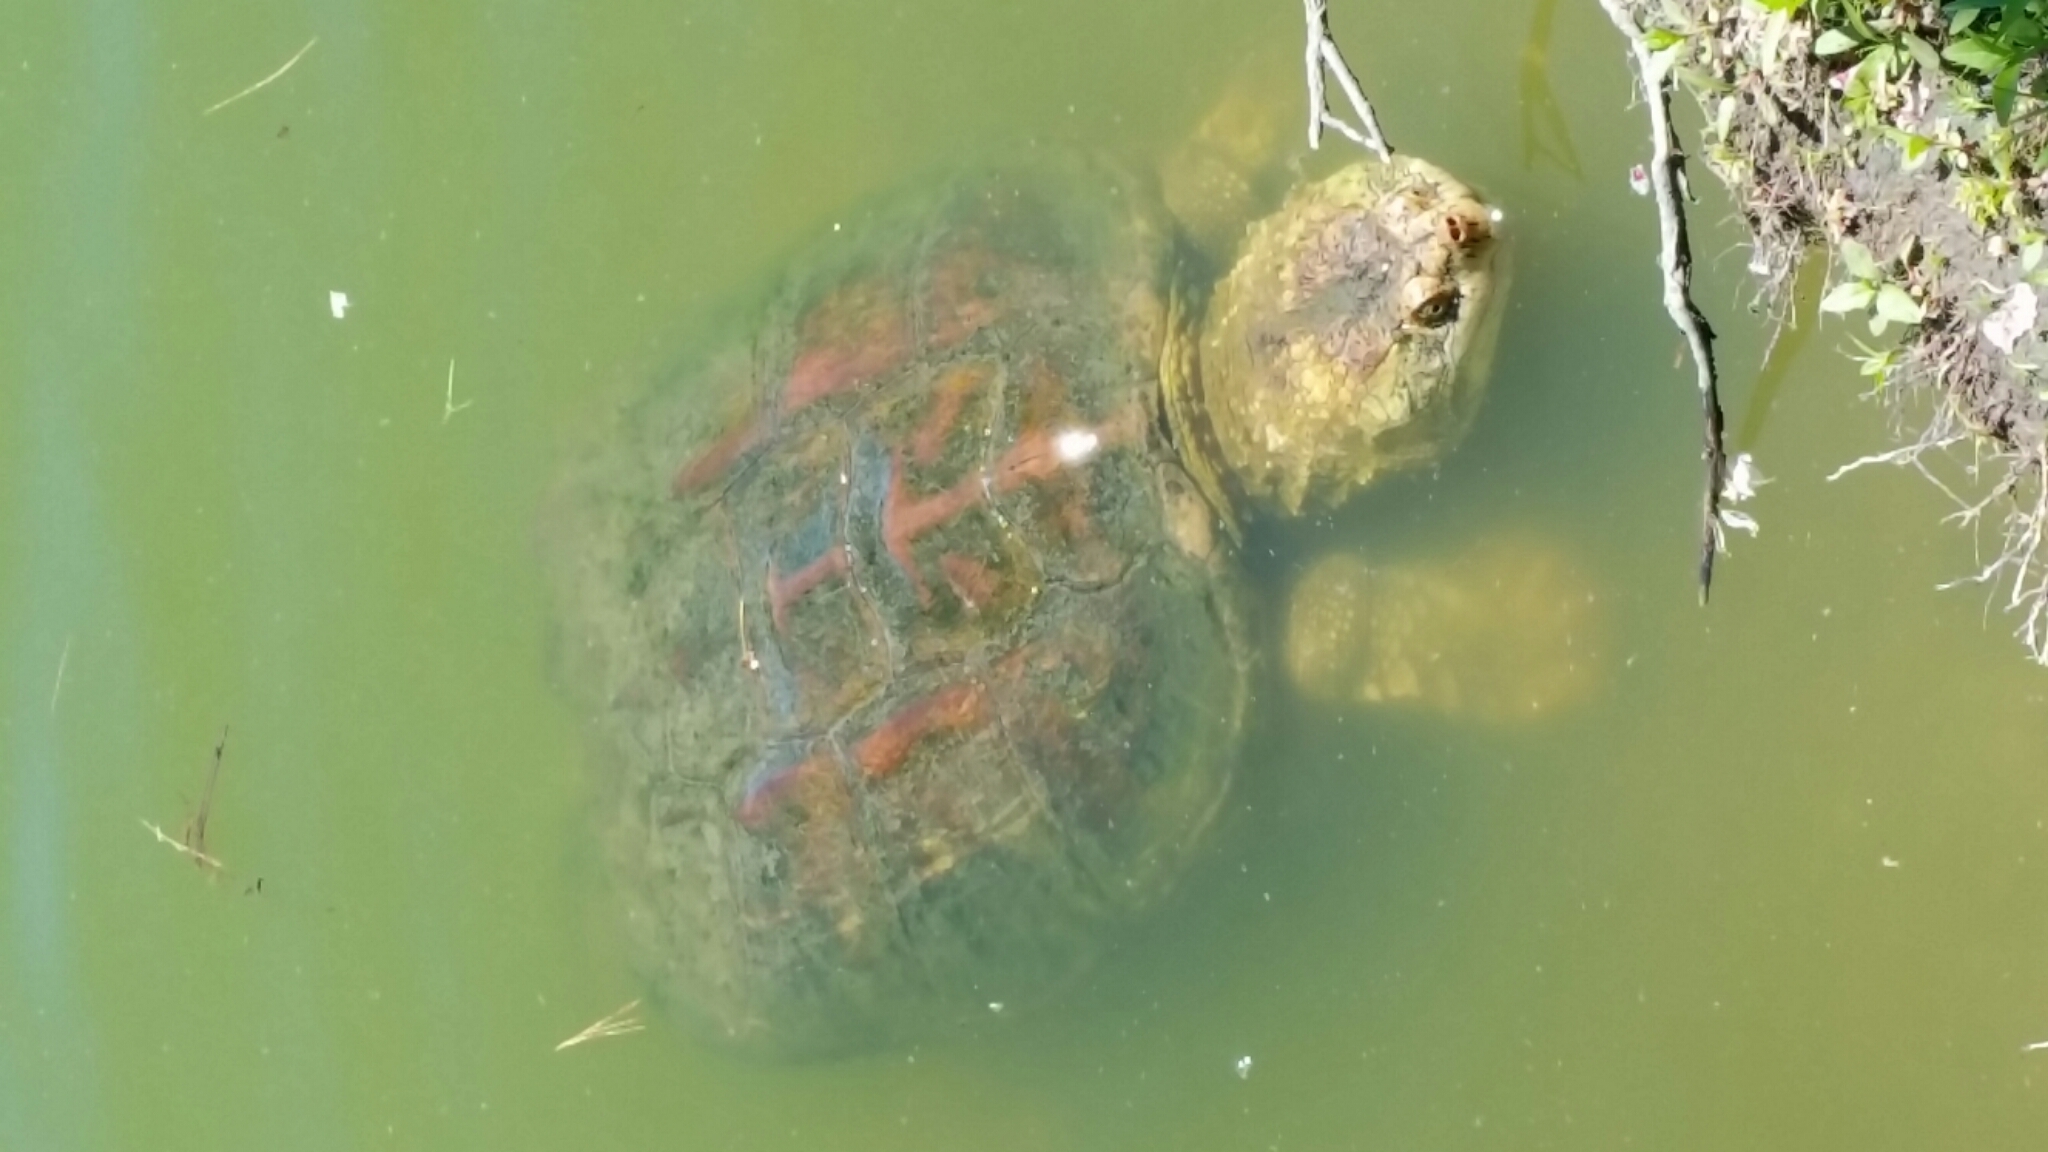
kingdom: Animalia
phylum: Chordata
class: Testudines
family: Chelydridae
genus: Chelydra
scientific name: Chelydra serpentina
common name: Common snapping turtle
